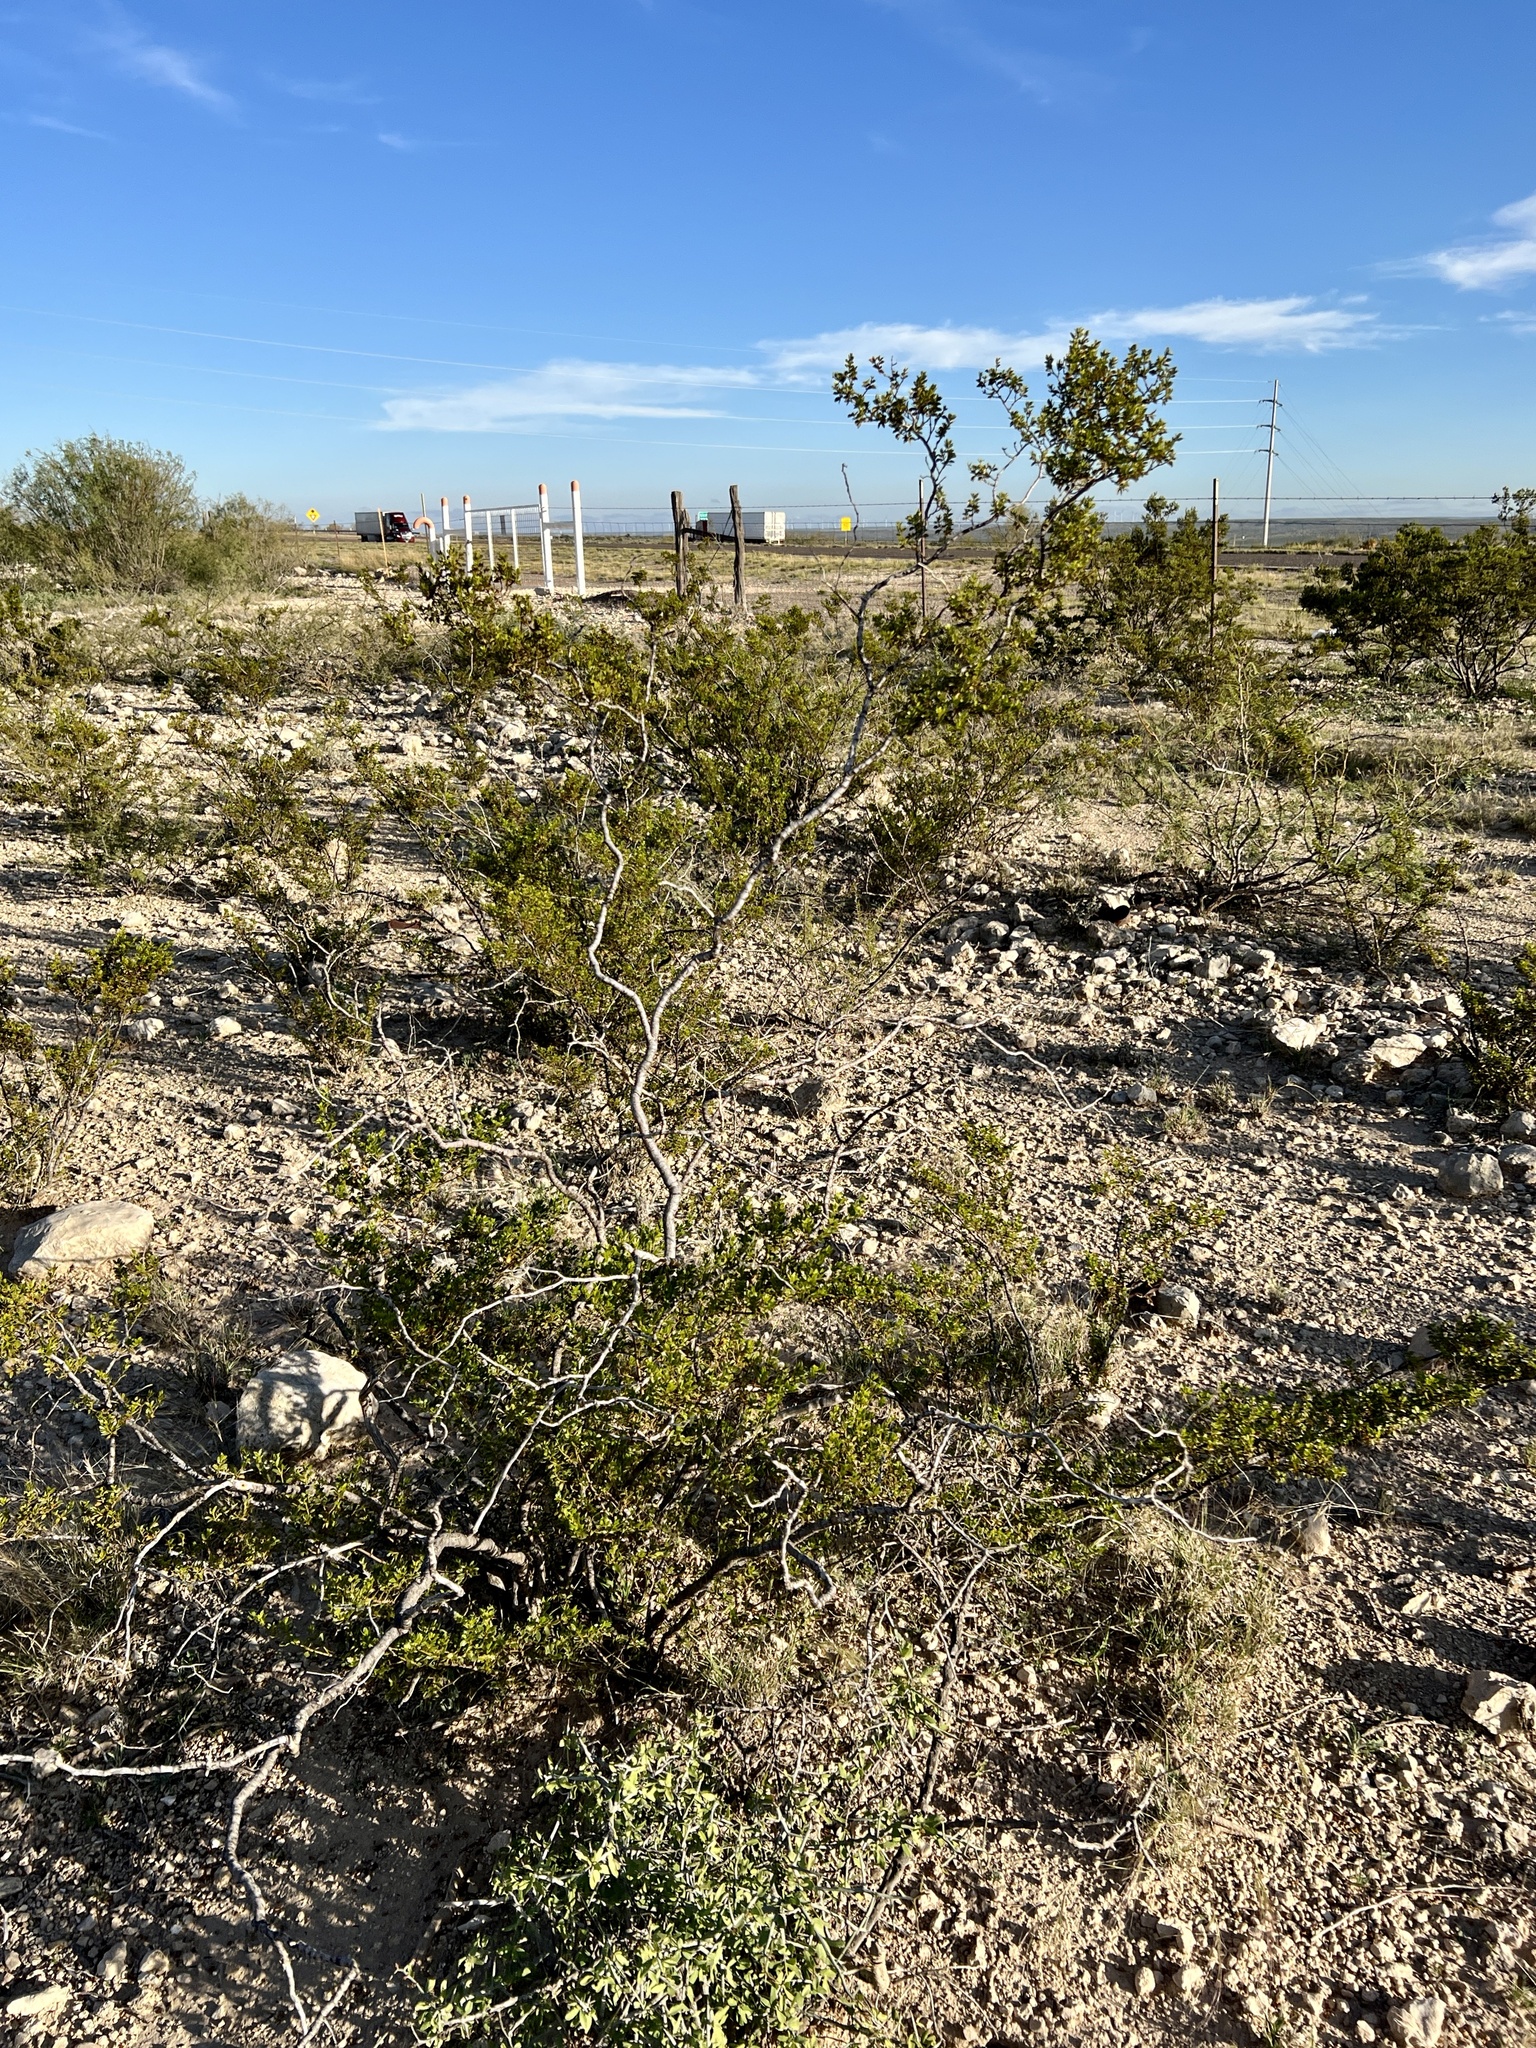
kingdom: Plantae
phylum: Tracheophyta
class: Magnoliopsida
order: Zygophyllales
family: Zygophyllaceae
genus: Larrea
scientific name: Larrea tridentata
